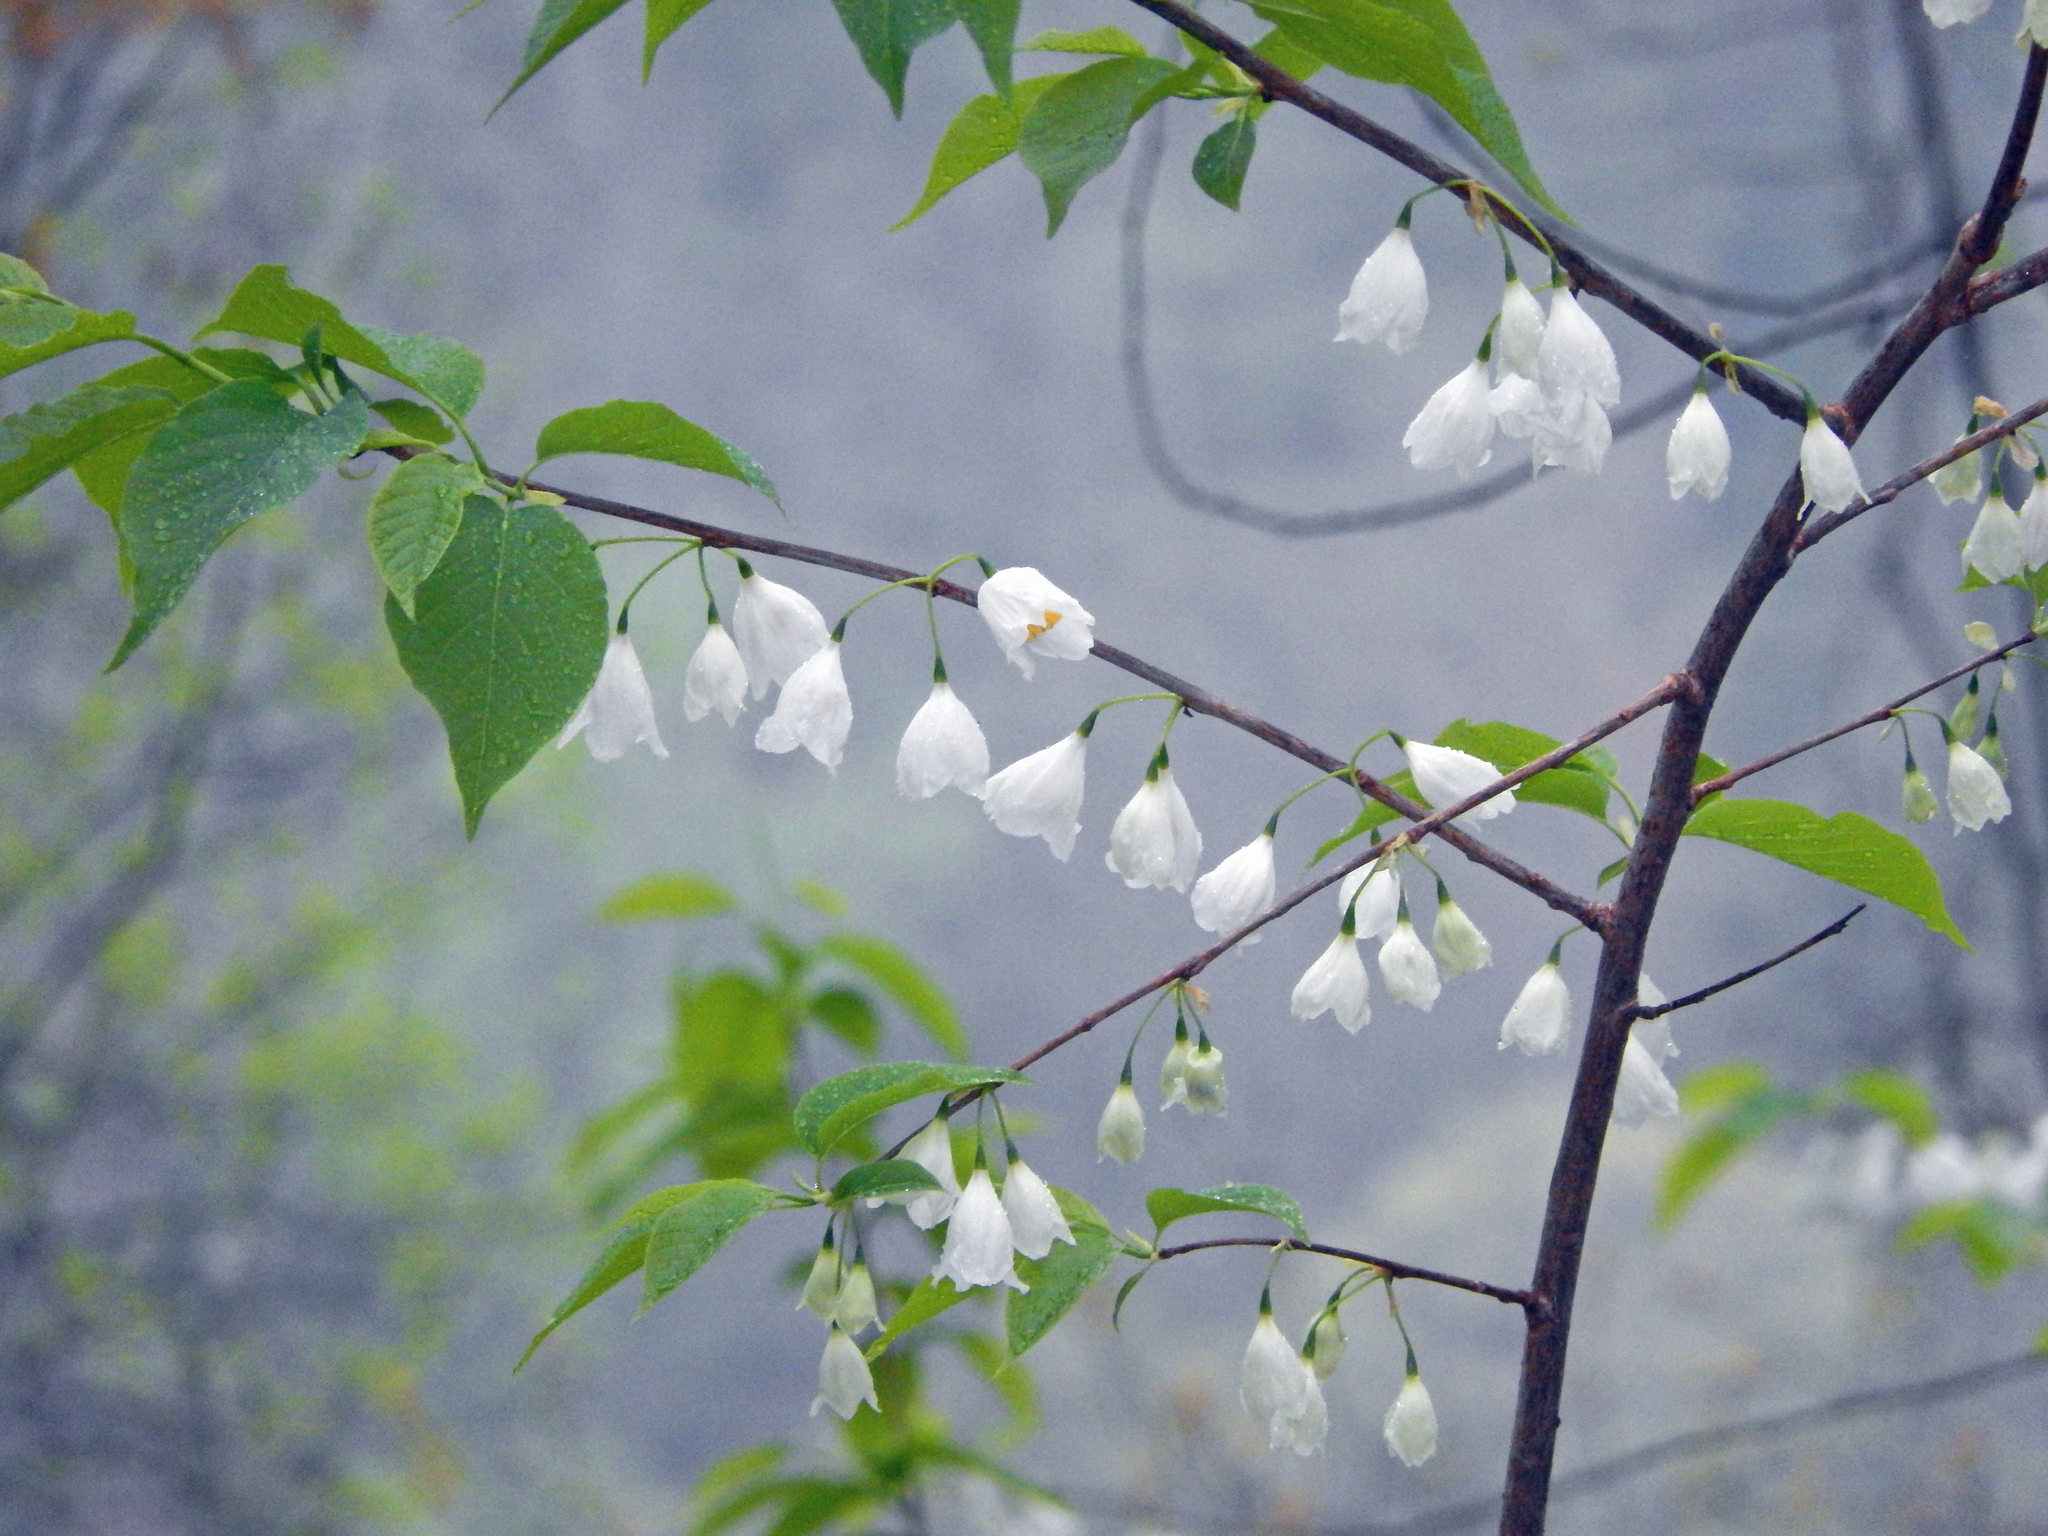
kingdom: Plantae
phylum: Tracheophyta
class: Magnoliopsida
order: Ericales
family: Styracaceae
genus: Halesia
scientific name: Halesia tetraptera
